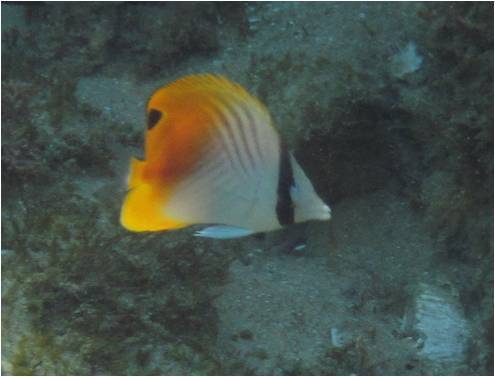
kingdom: Animalia
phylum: Chordata
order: Perciformes
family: Chaetodontidae
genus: Chaetodon
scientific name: Chaetodon auriga
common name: Threadfin butterflyfish
